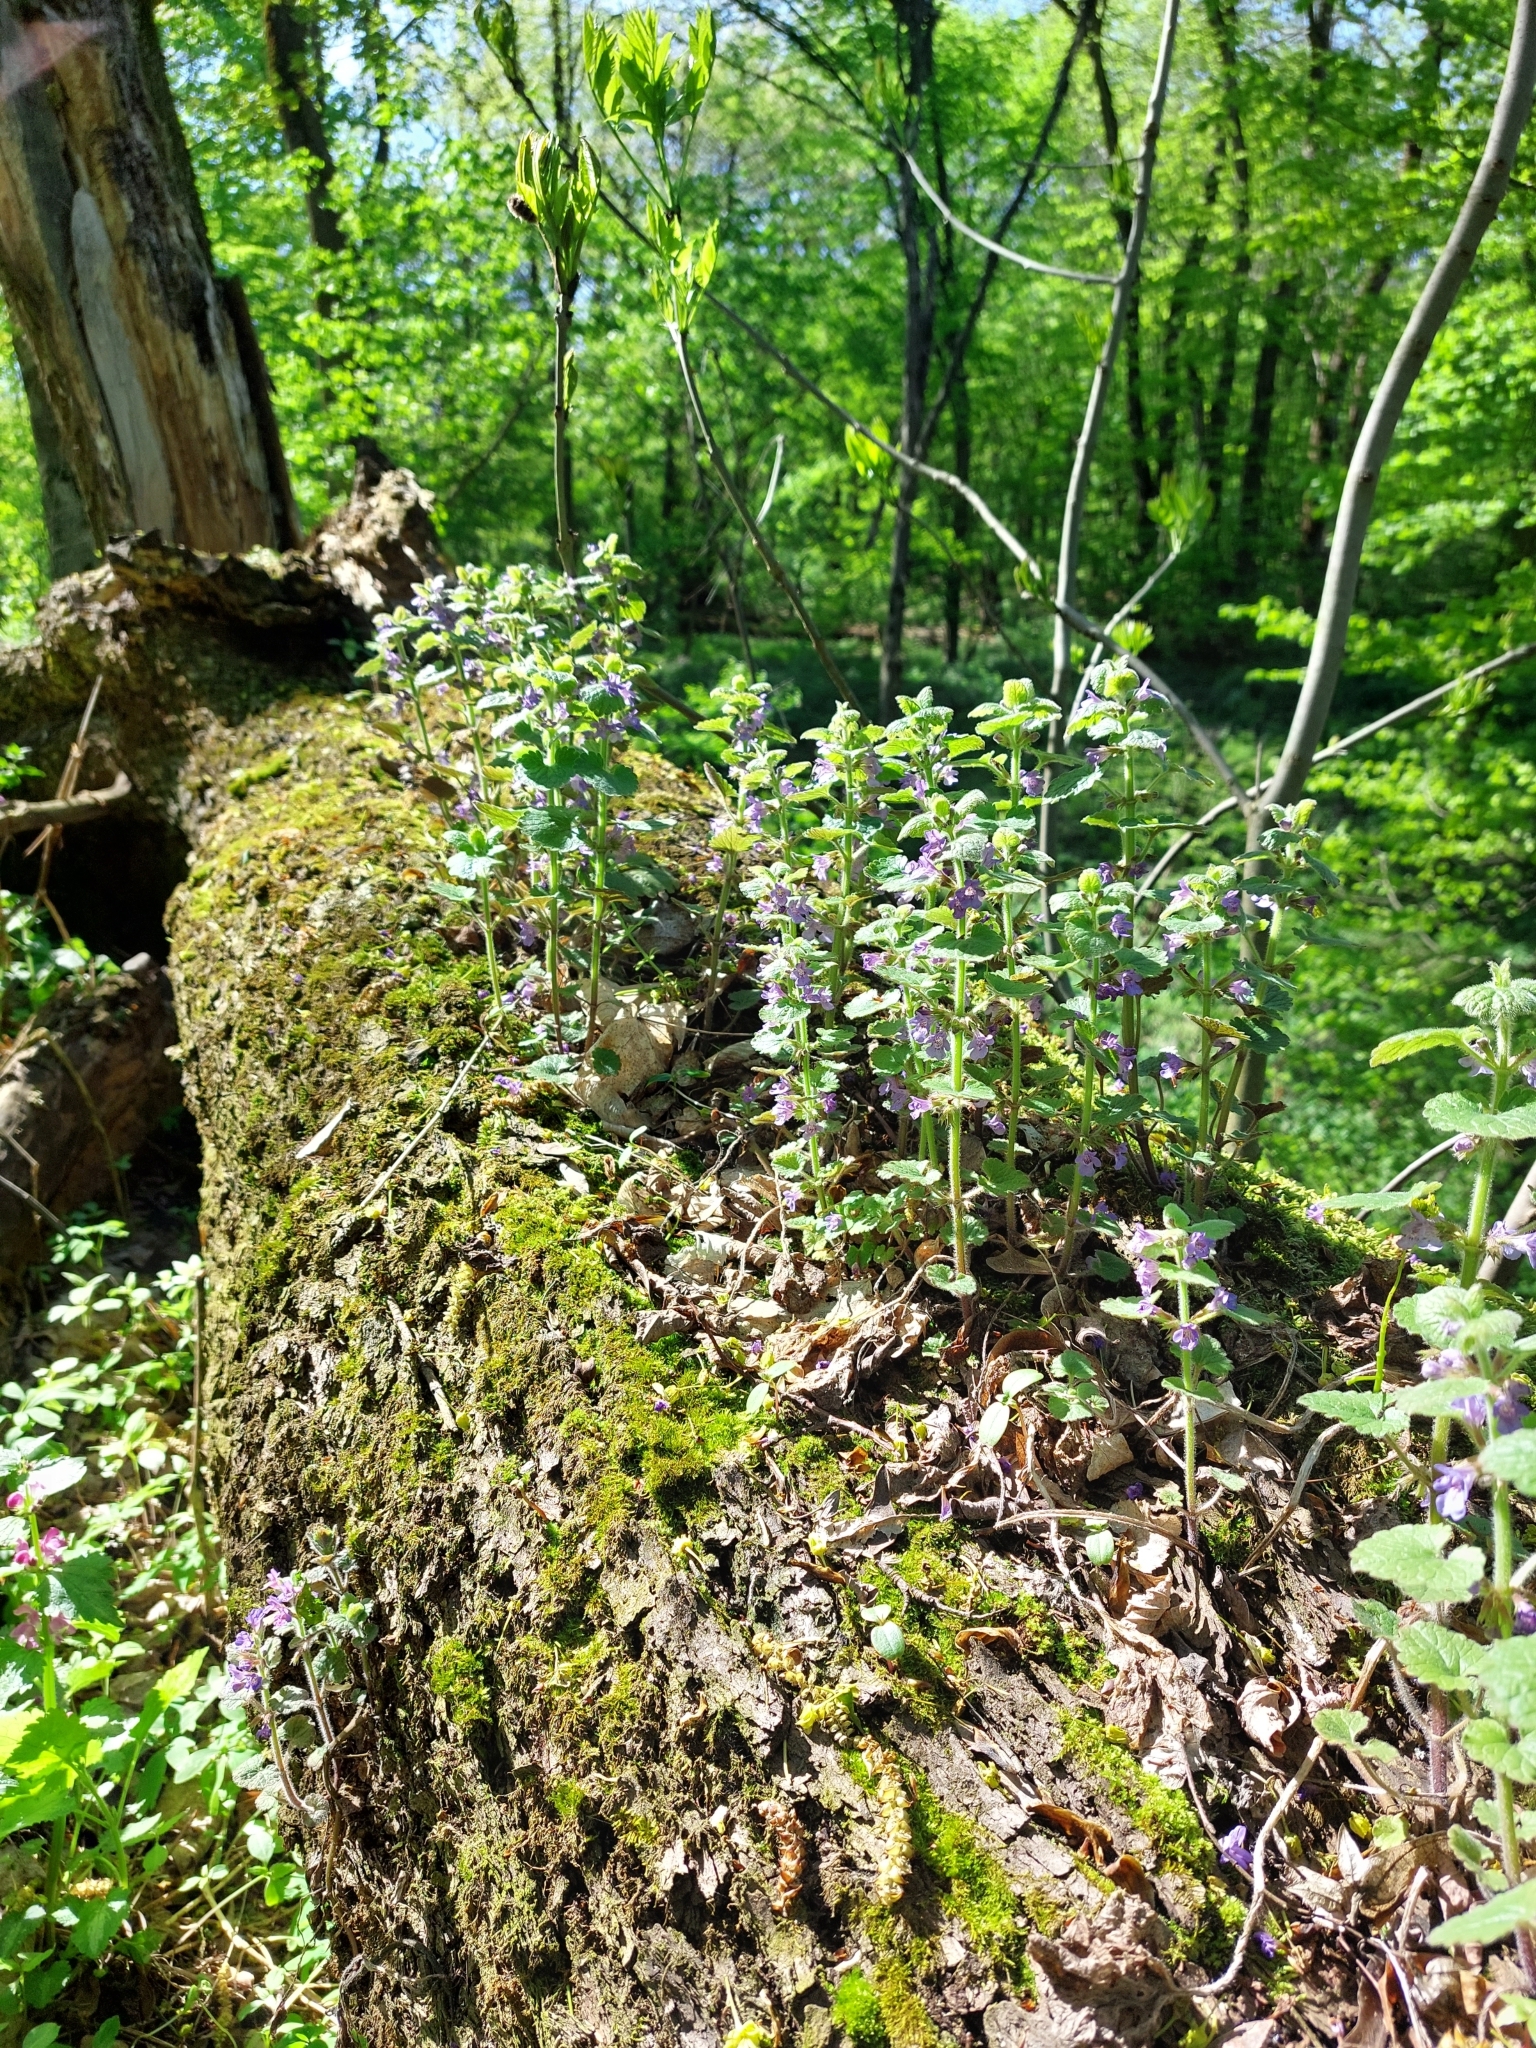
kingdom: Plantae
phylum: Tracheophyta
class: Magnoliopsida
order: Lamiales
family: Lamiaceae
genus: Glechoma
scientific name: Glechoma hirsuta
